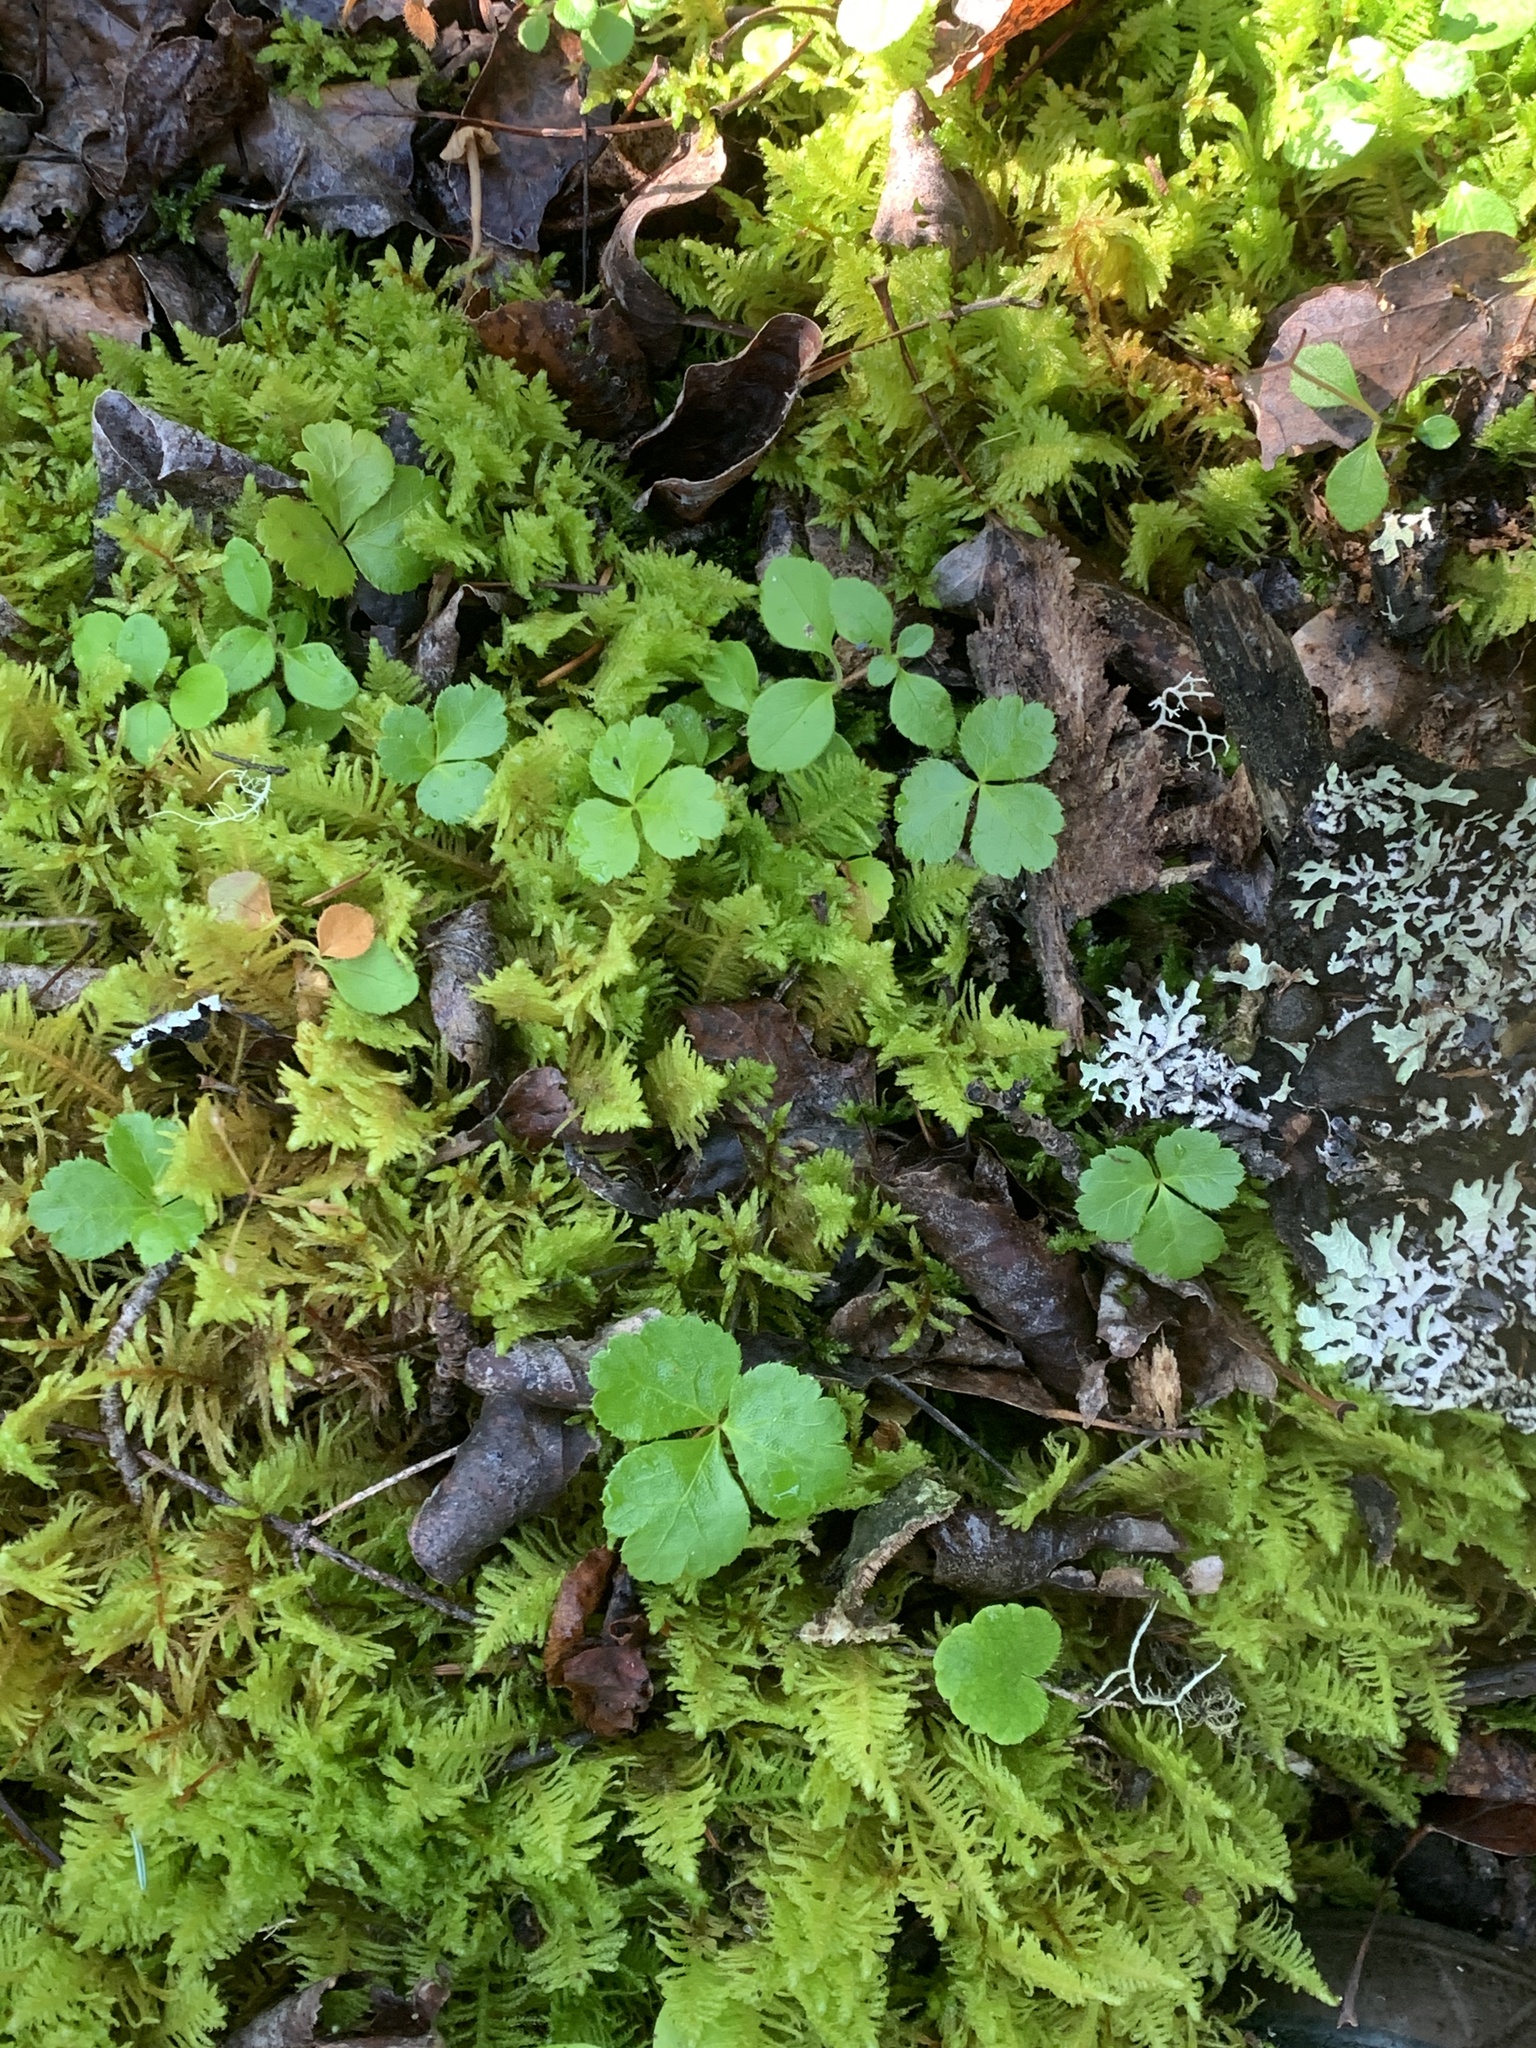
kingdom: Plantae
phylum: Tracheophyta
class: Magnoliopsida
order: Ranunculales
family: Ranunculaceae
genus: Coptis
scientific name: Coptis trifolia
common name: Canker-root
